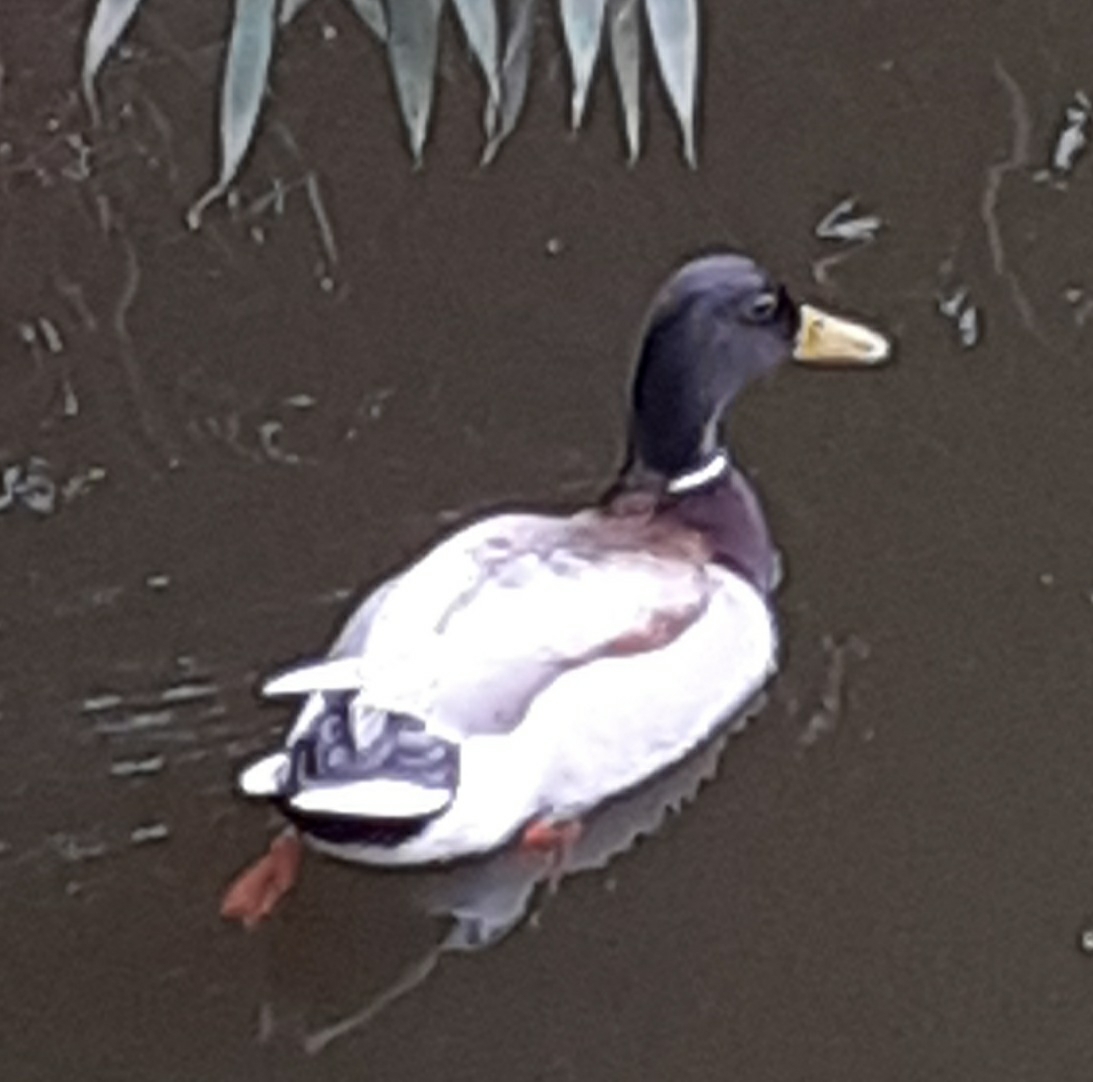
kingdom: Animalia
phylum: Chordata
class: Aves
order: Anseriformes
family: Anatidae
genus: Anas
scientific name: Anas platyrhynchos
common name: Mallard
